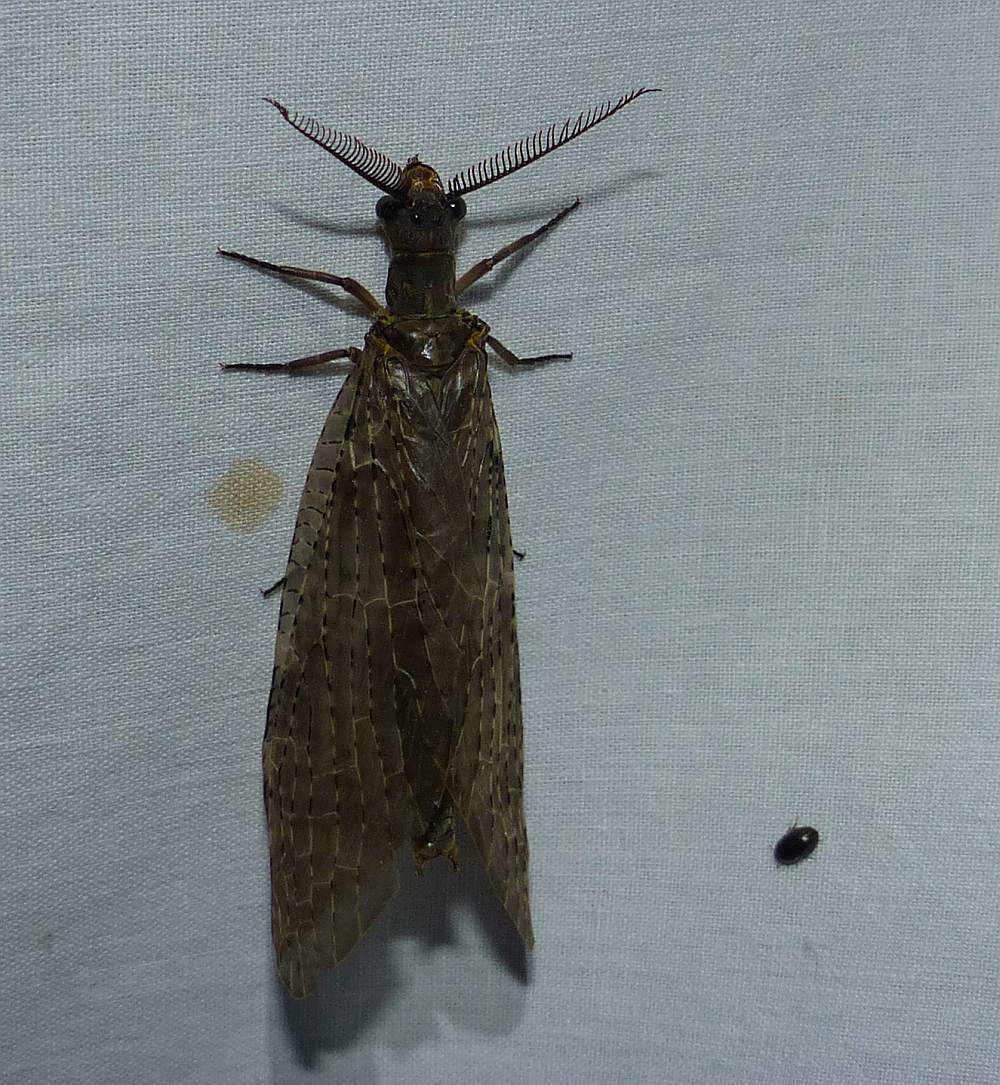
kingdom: Animalia
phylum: Arthropoda
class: Insecta
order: Megaloptera
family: Corydalidae
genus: Chauliodes
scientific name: Chauliodes pectinicornis
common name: Summer fishfly
